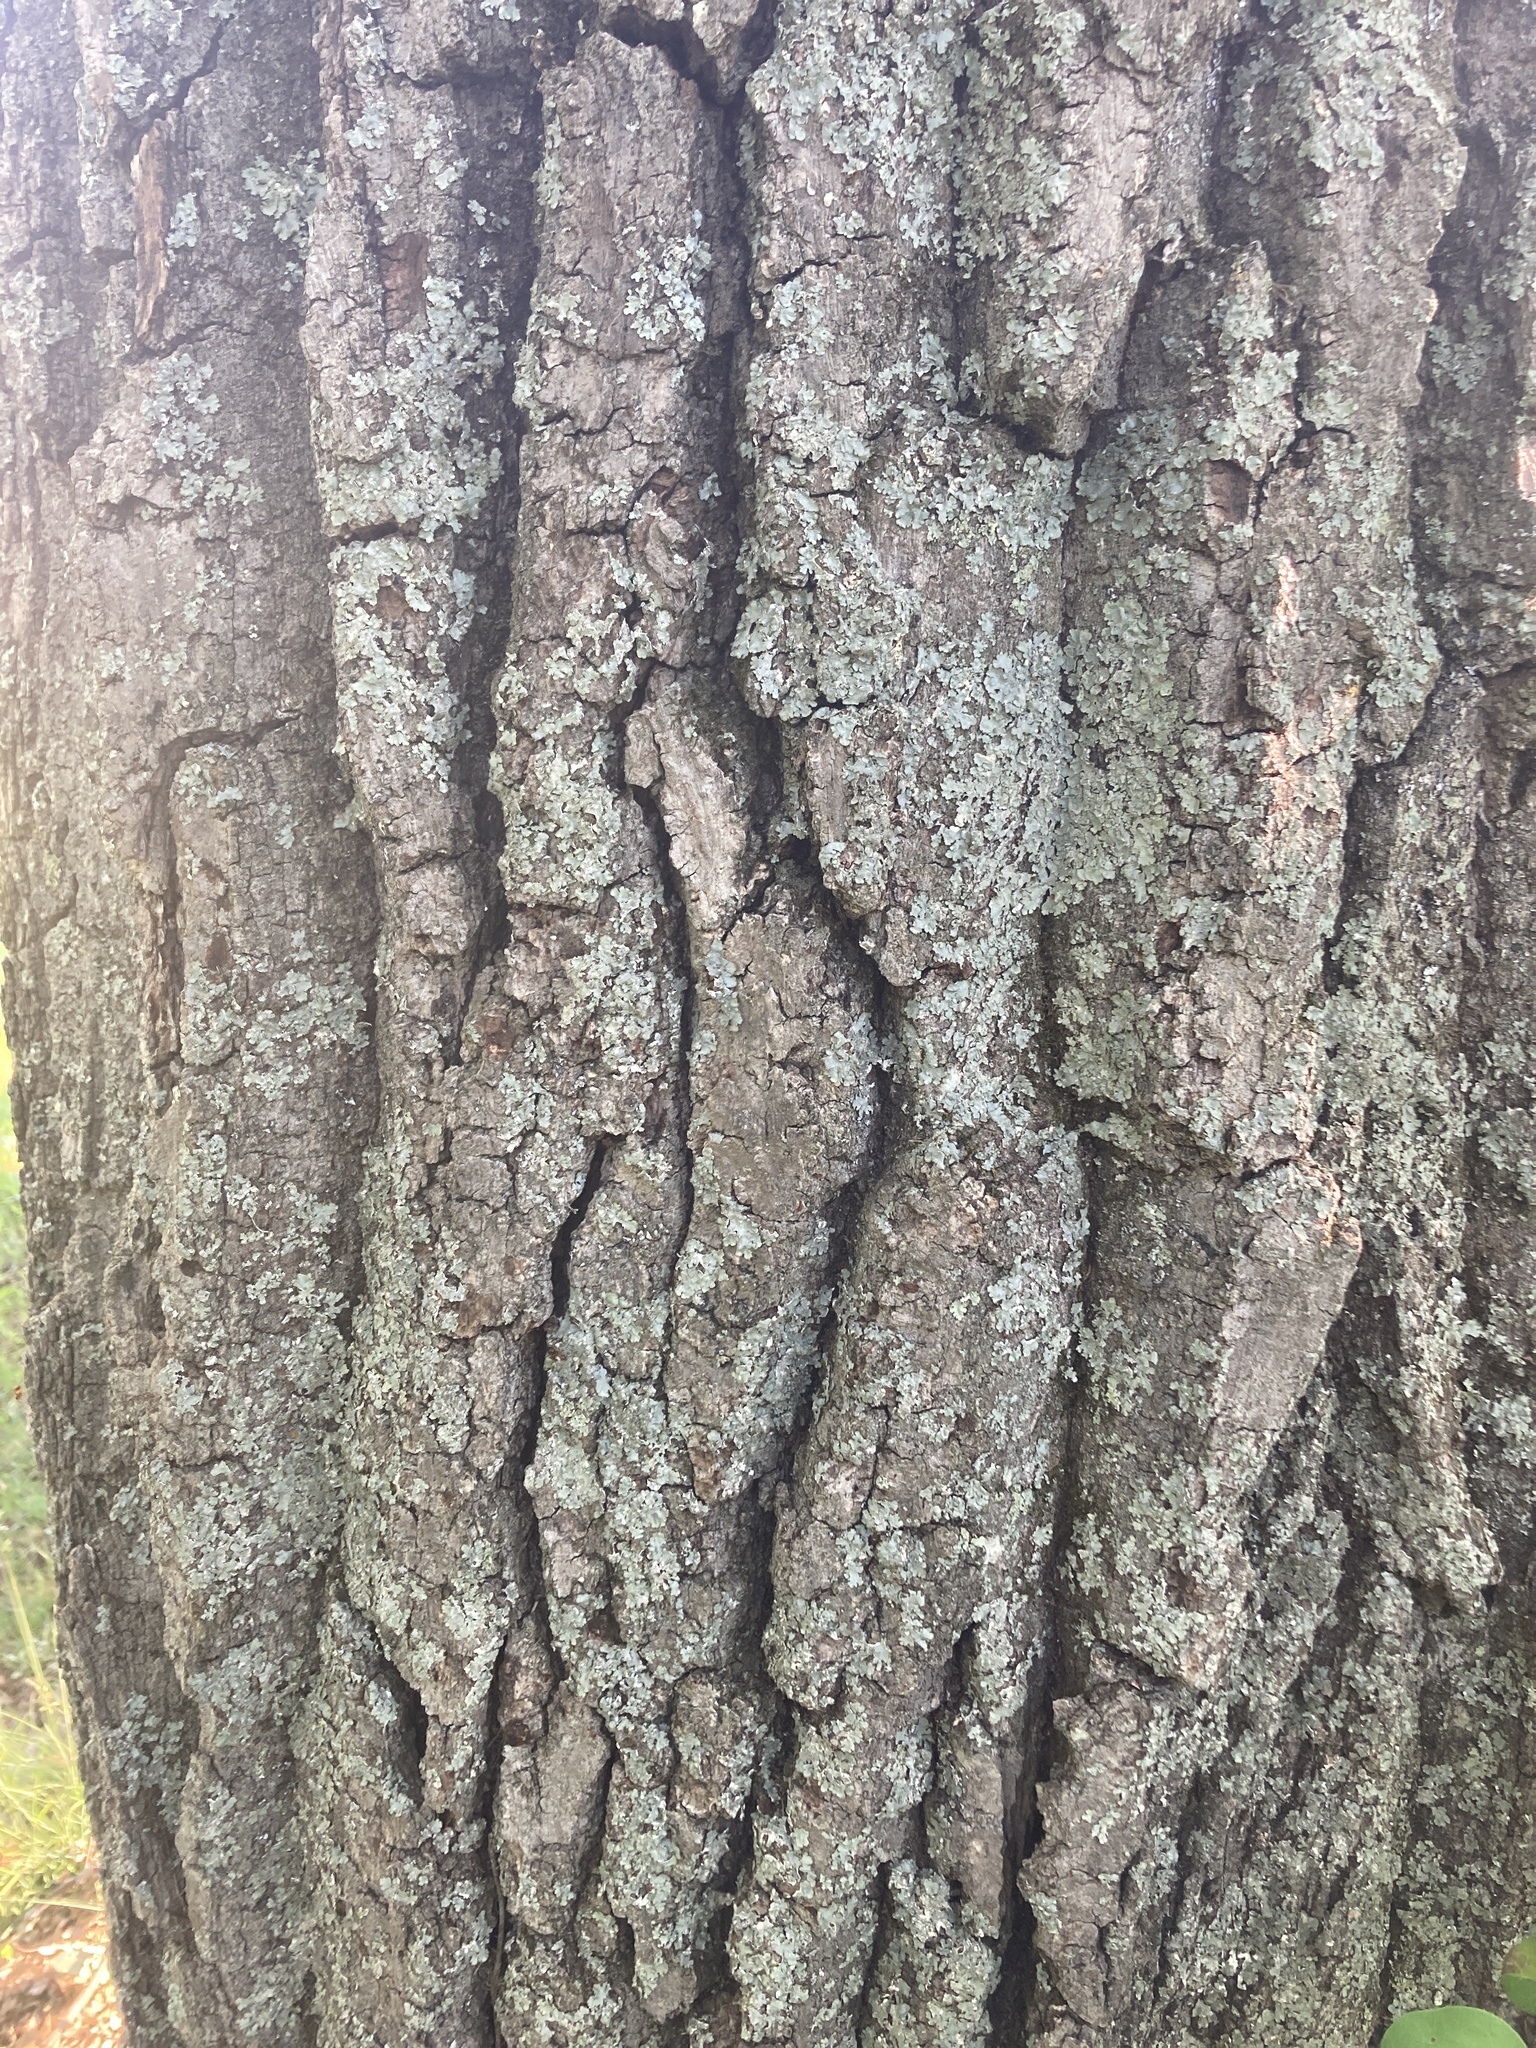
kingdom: Plantae
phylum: Tracheophyta
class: Magnoliopsida
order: Fagales
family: Fagaceae
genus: Quercus
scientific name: Quercus montana
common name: Chestnut oak
